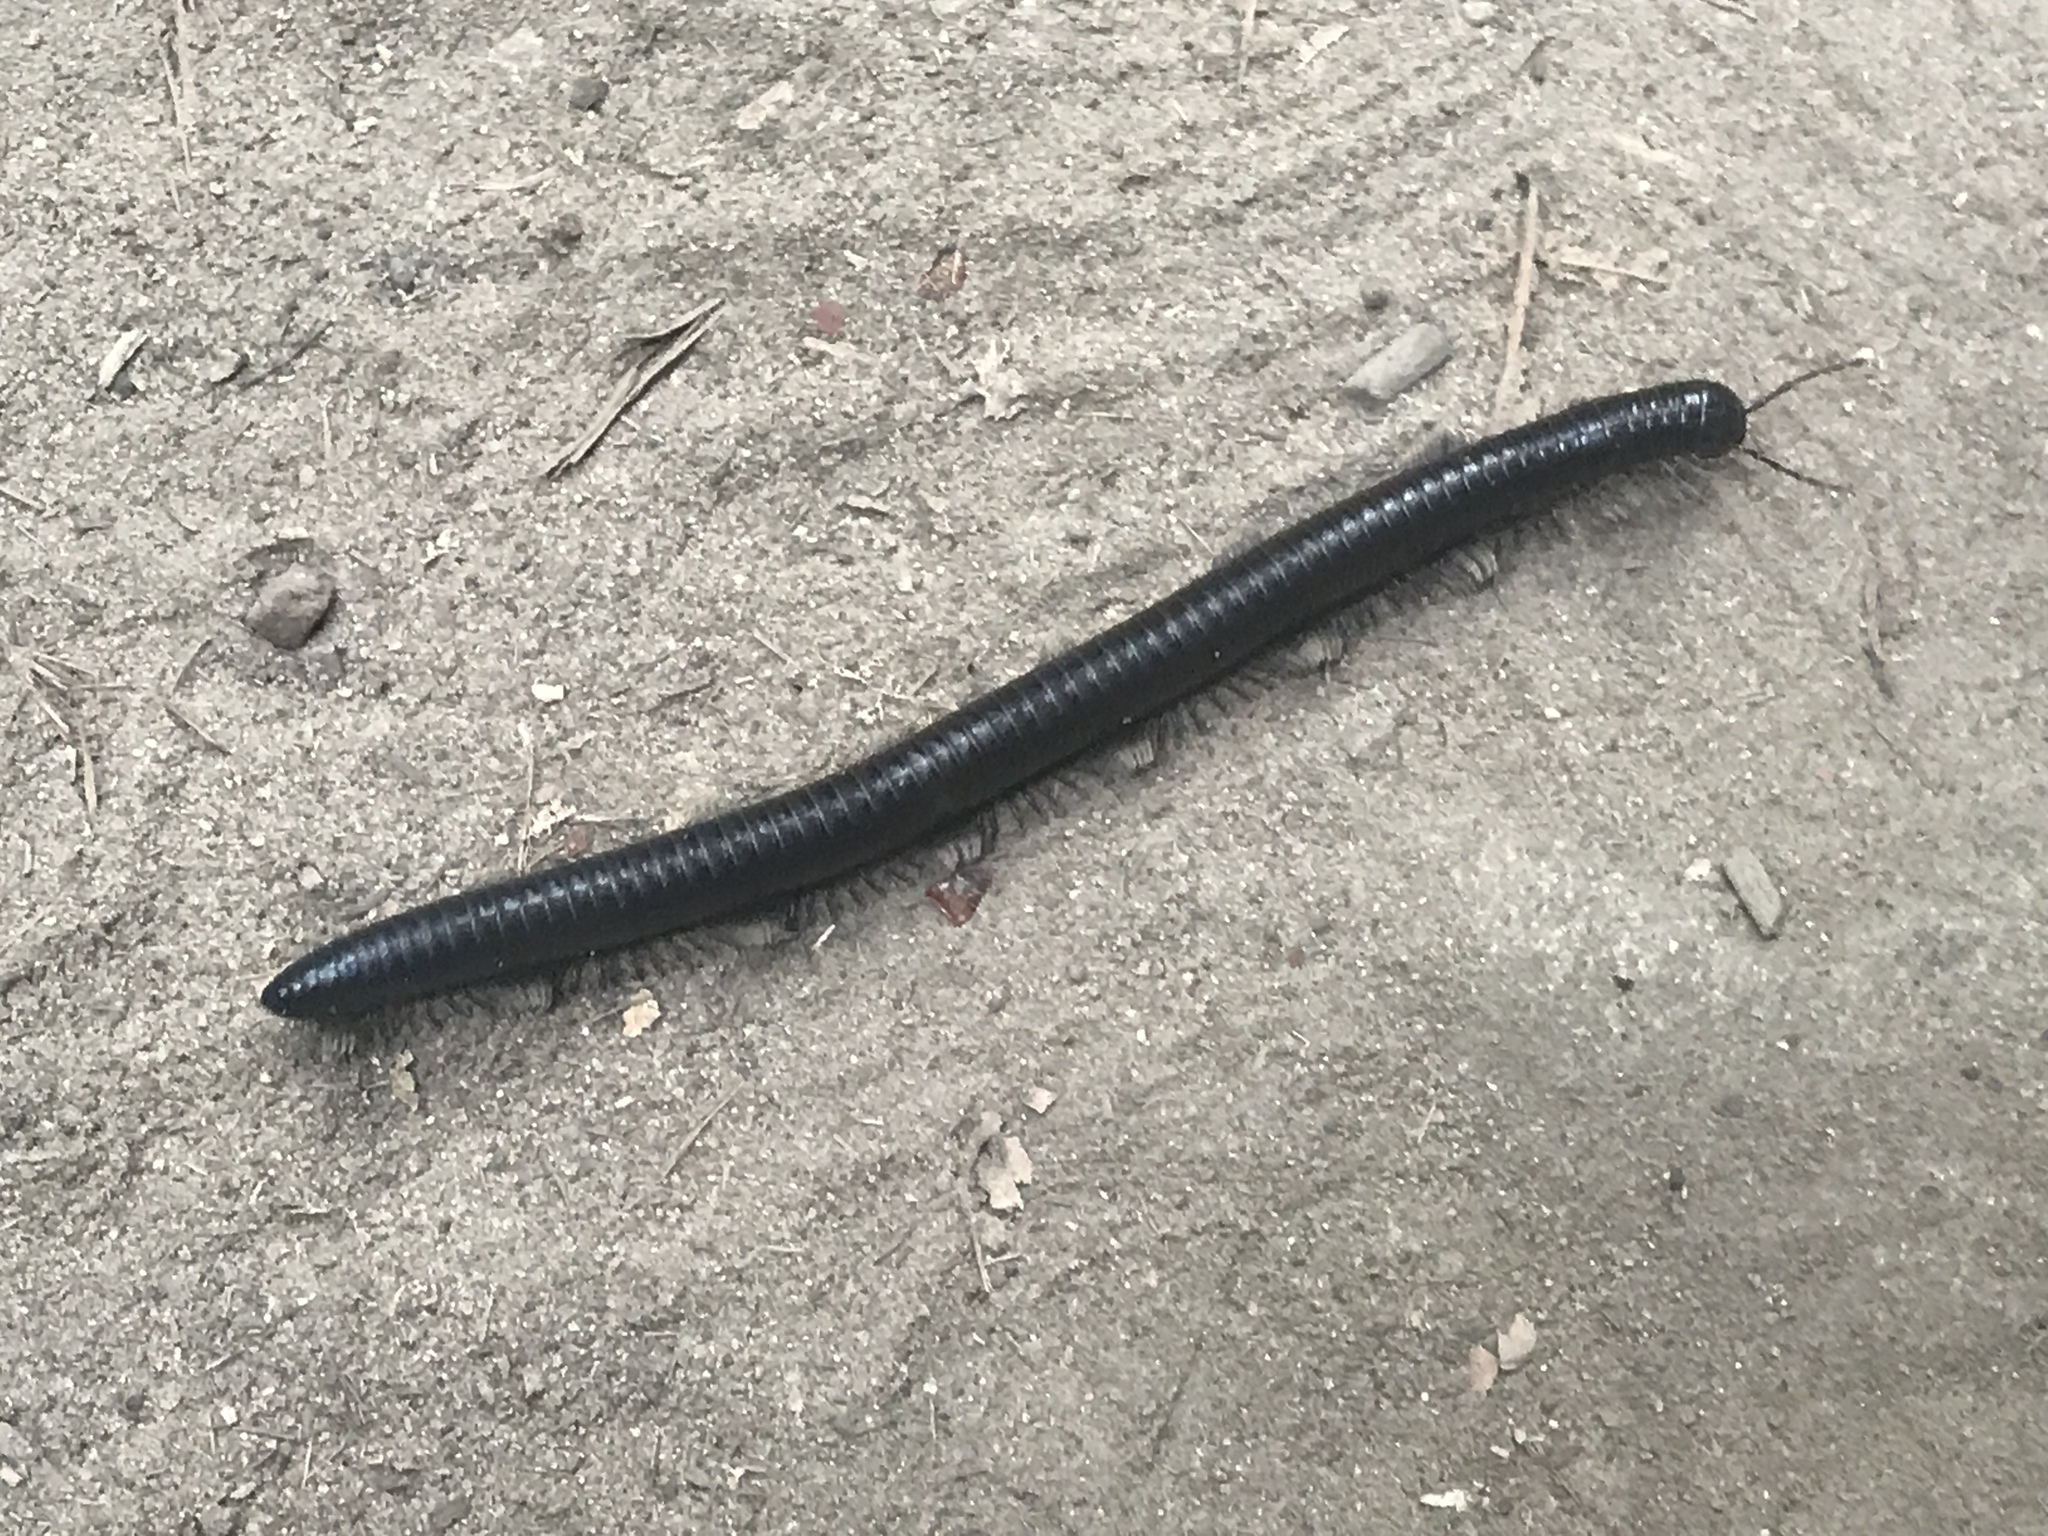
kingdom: Animalia
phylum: Arthropoda
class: Diplopoda
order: Julida
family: Paeromopodidae
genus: Paeromopus
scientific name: Paeromopus angusticeps
